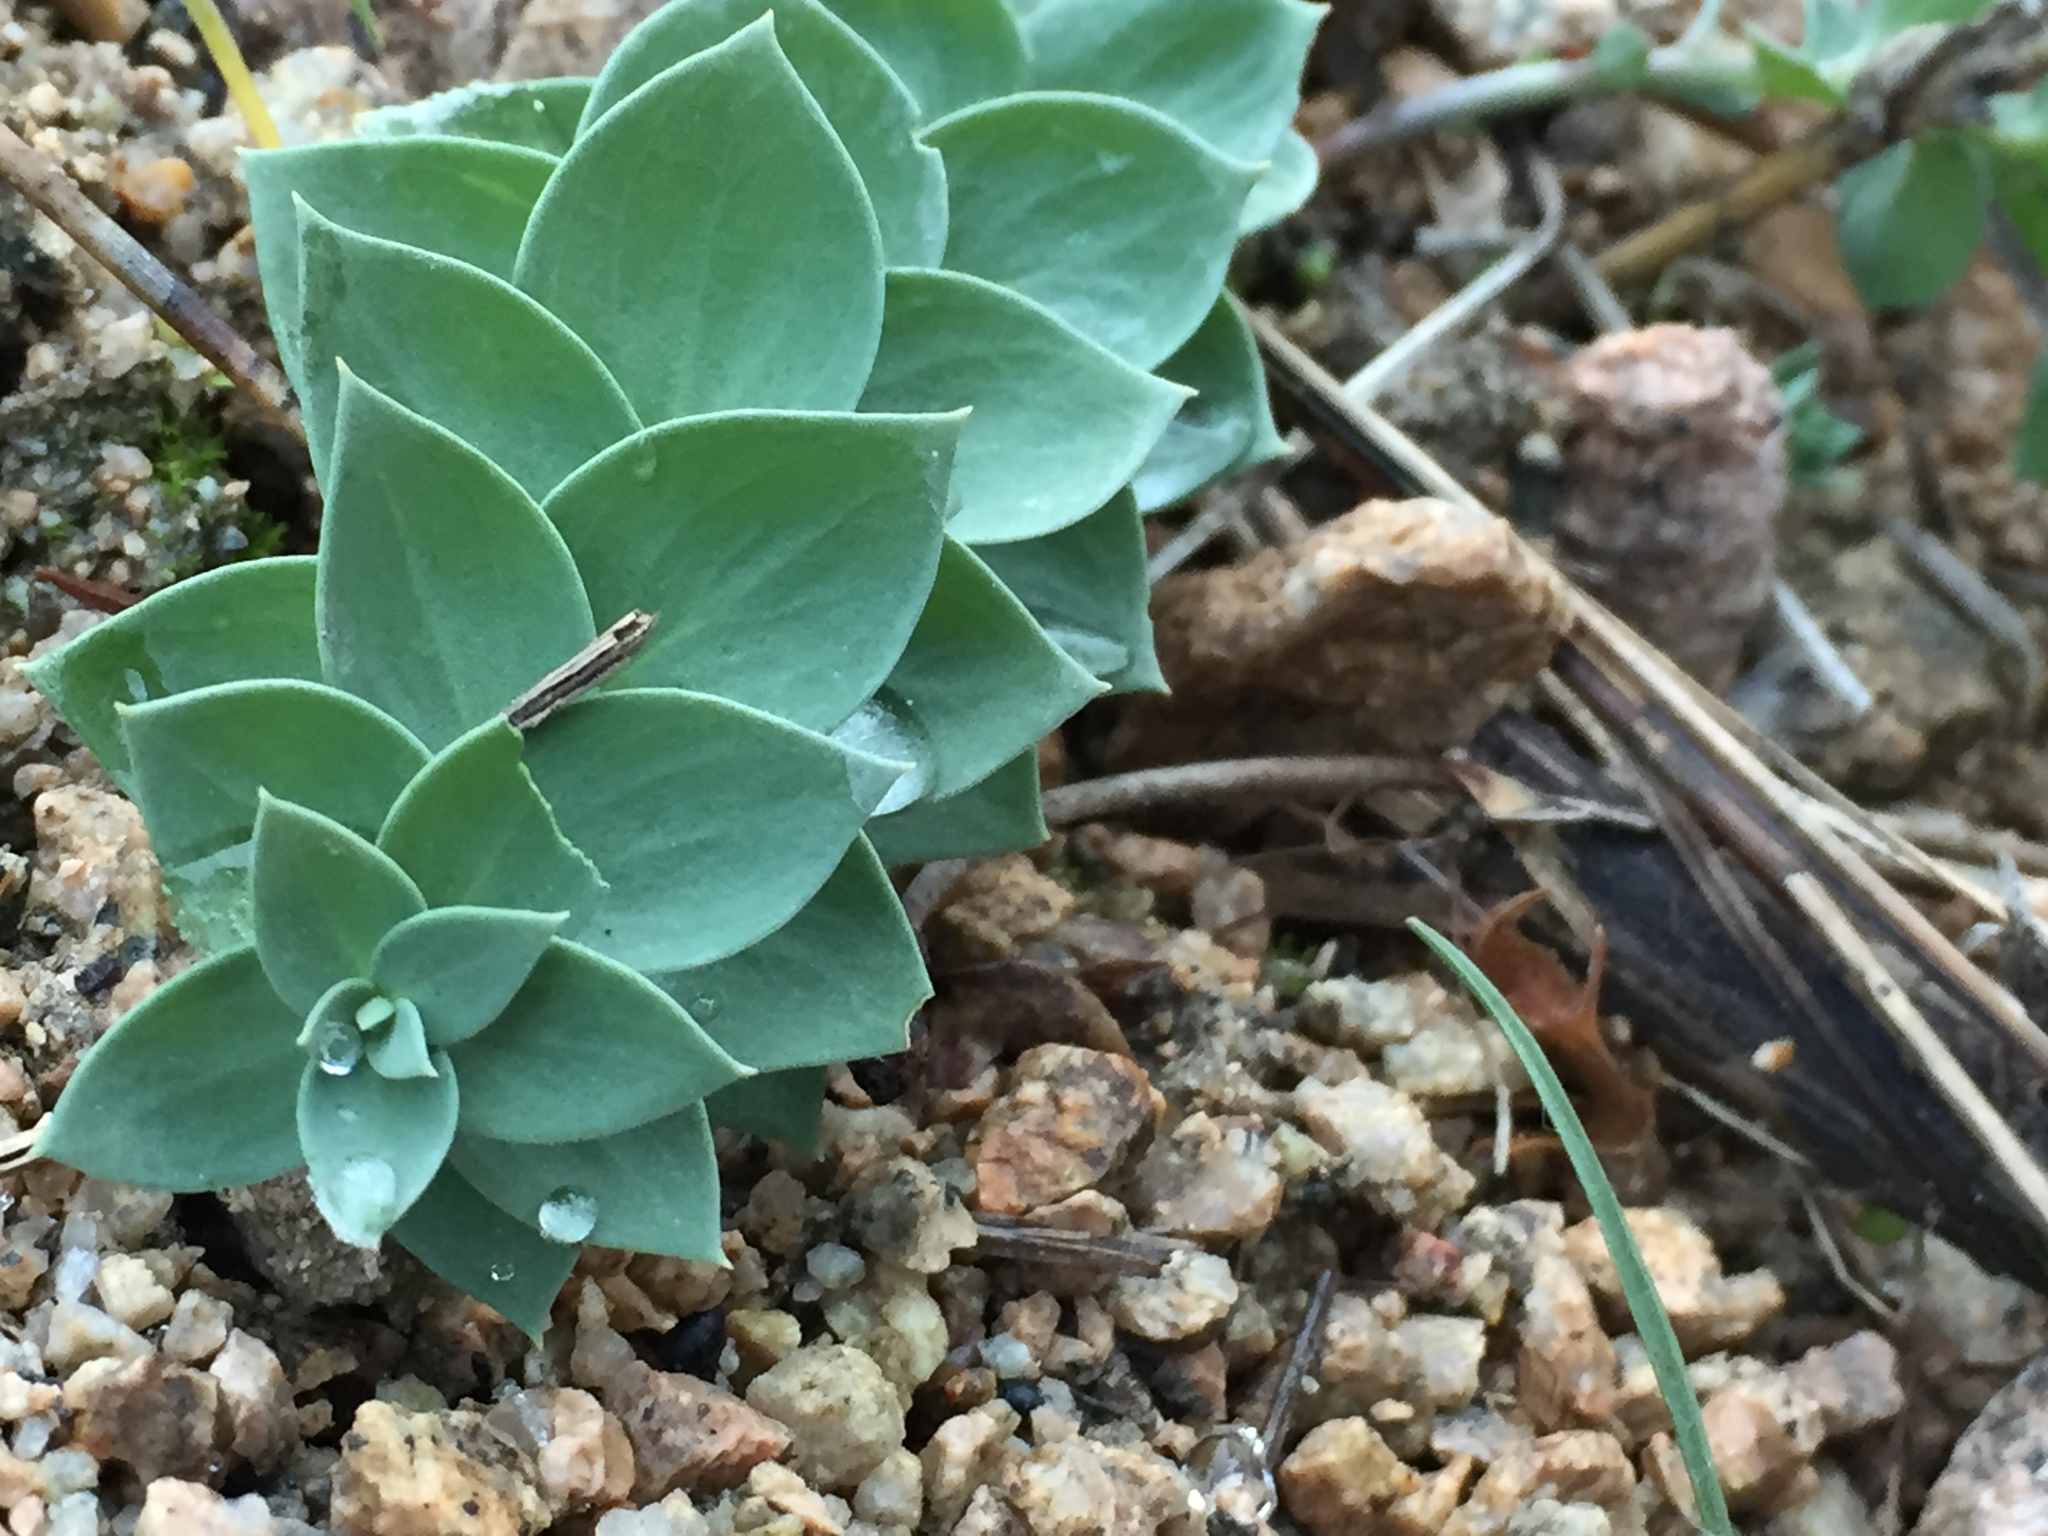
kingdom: Plantae
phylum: Tracheophyta
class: Magnoliopsida
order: Lamiales
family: Plantaginaceae
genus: Linaria
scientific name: Linaria dalmatica
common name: Dalmatian toadflax
